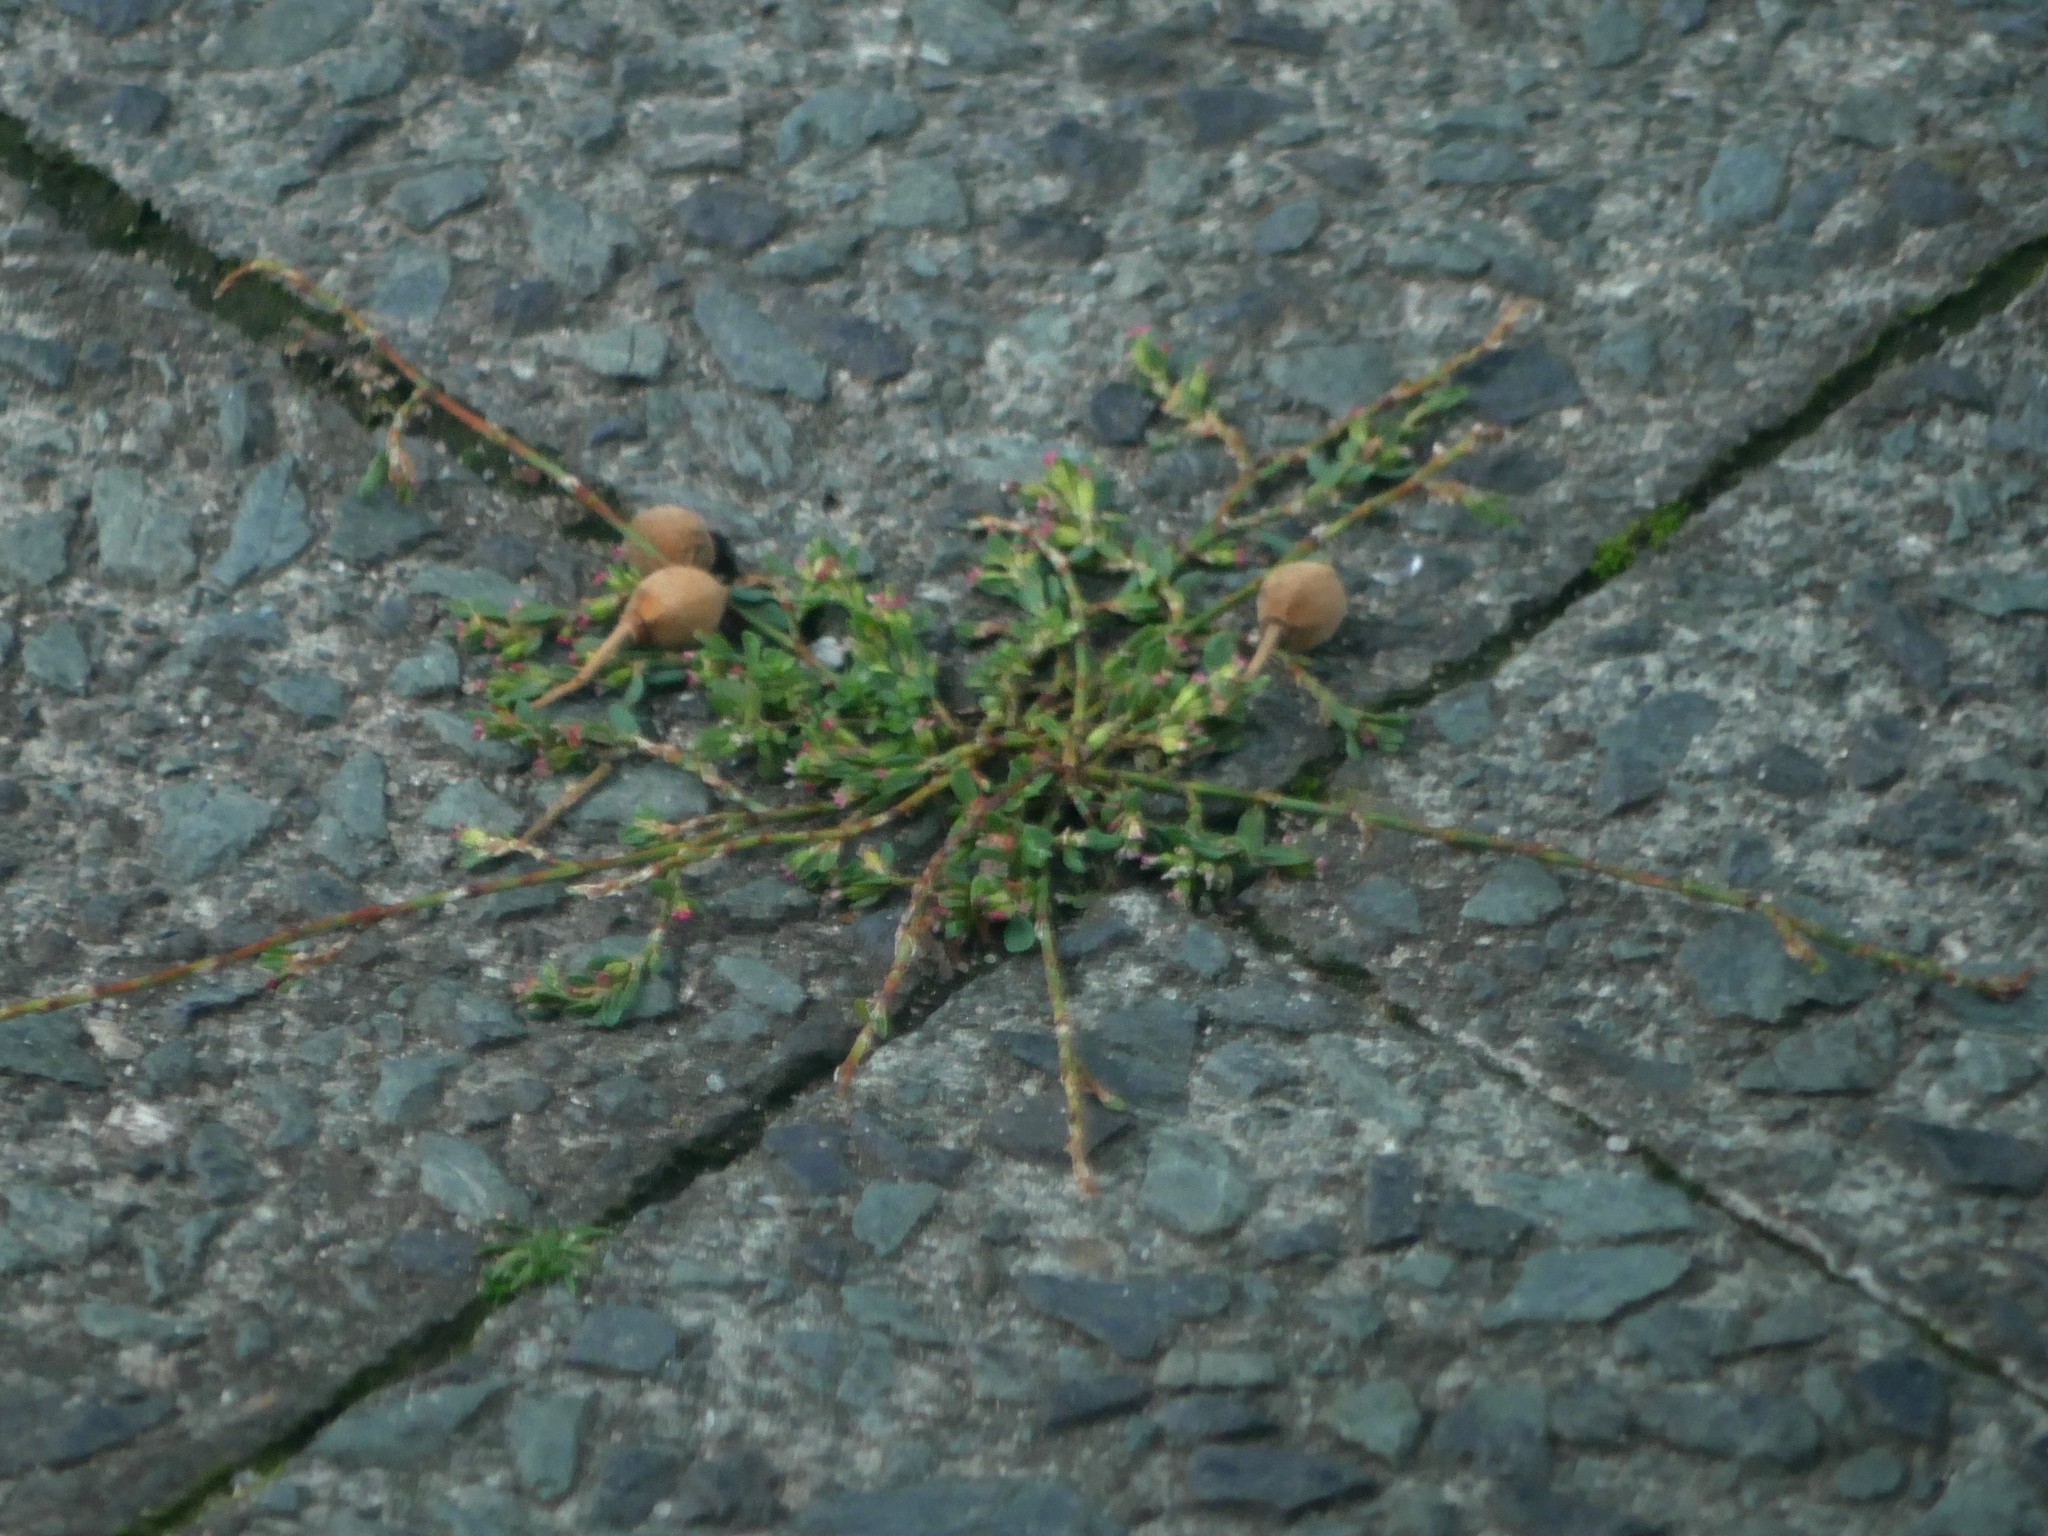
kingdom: Plantae
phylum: Tracheophyta
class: Magnoliopsida
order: Caryophyllales
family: Polygonaceae
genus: Polygonum
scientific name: Polygonum aviculare
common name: Prostrate knotweed
